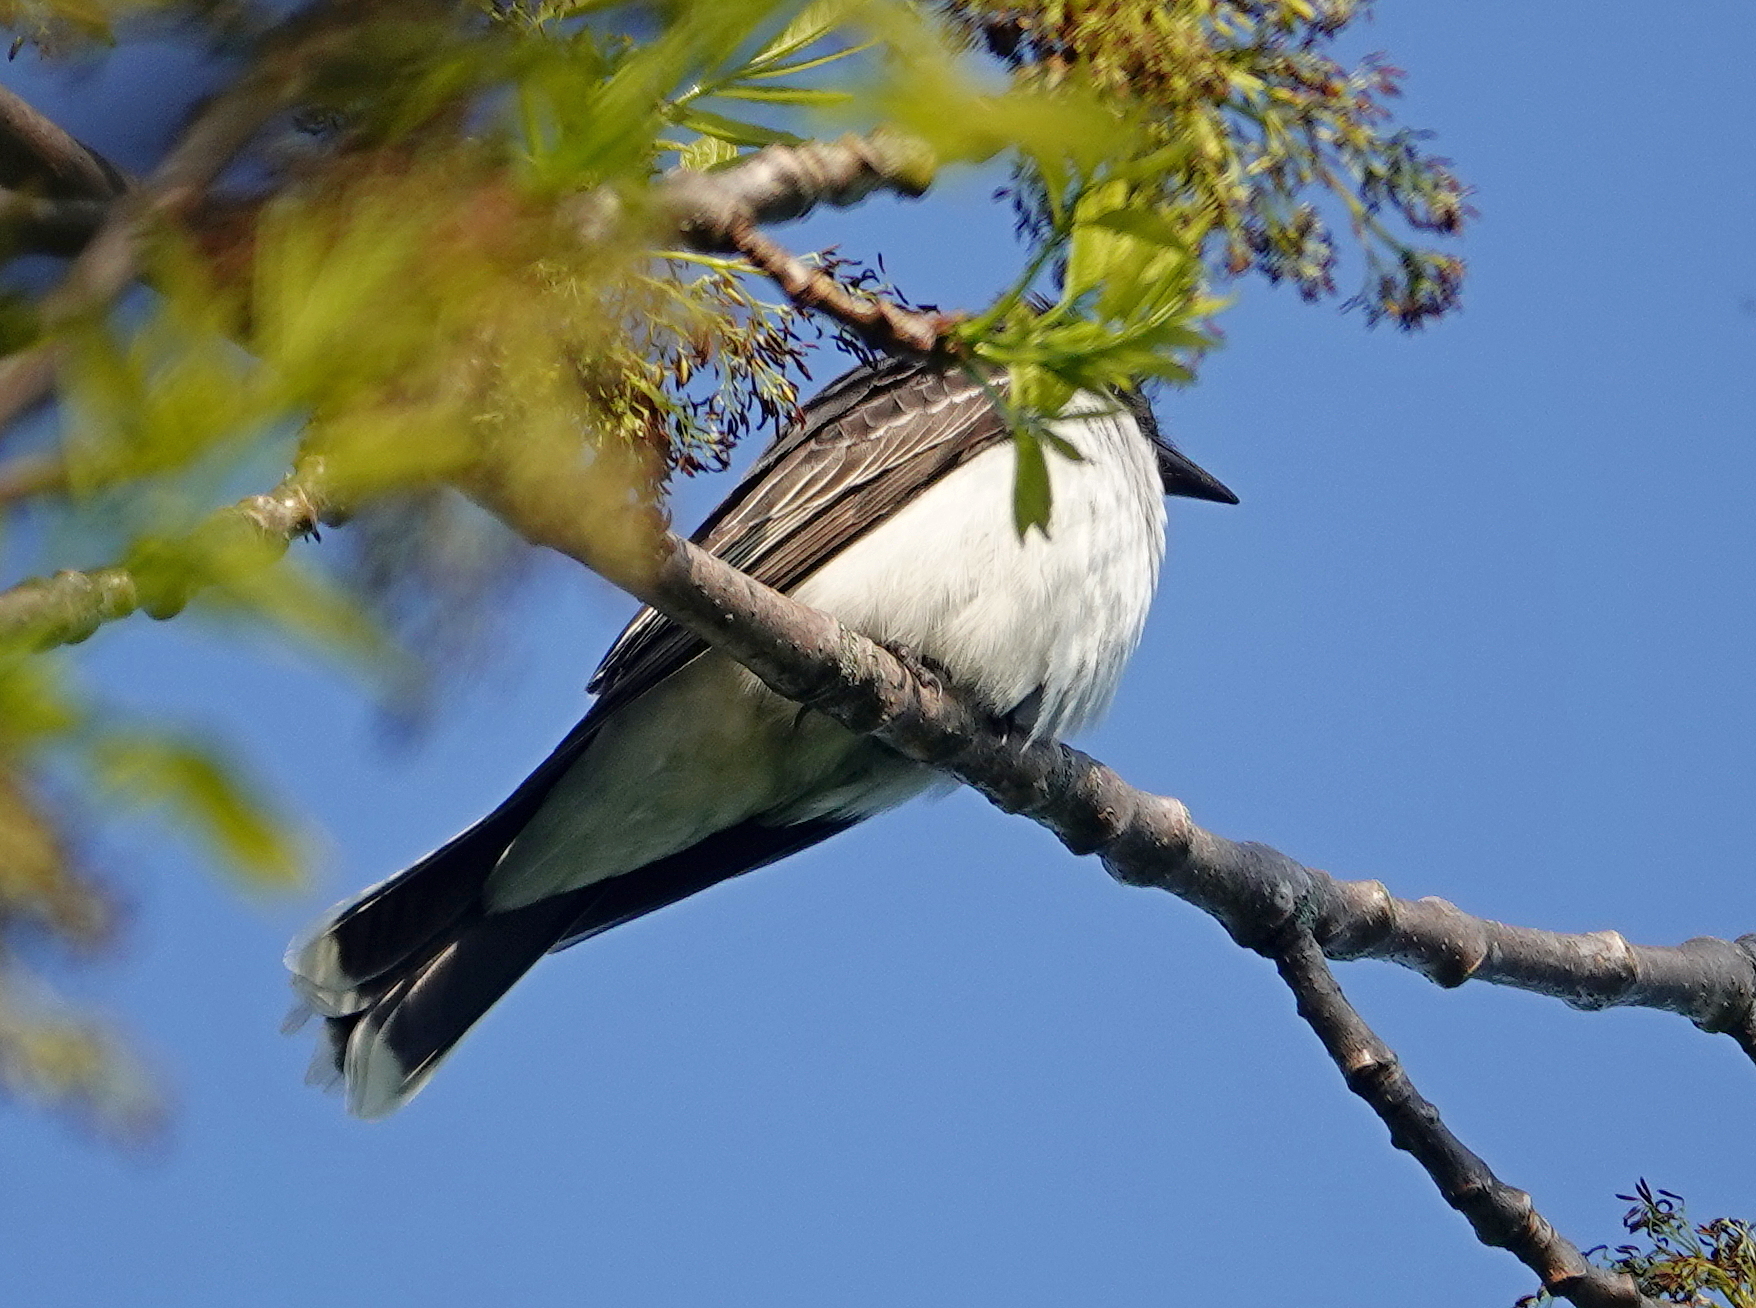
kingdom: Animalia
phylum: Chordata
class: Aves
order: Passeriformes
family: Tyrannidae
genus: Tyrannus
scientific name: Tyrannus tyrannus
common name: Eastern kingbird
